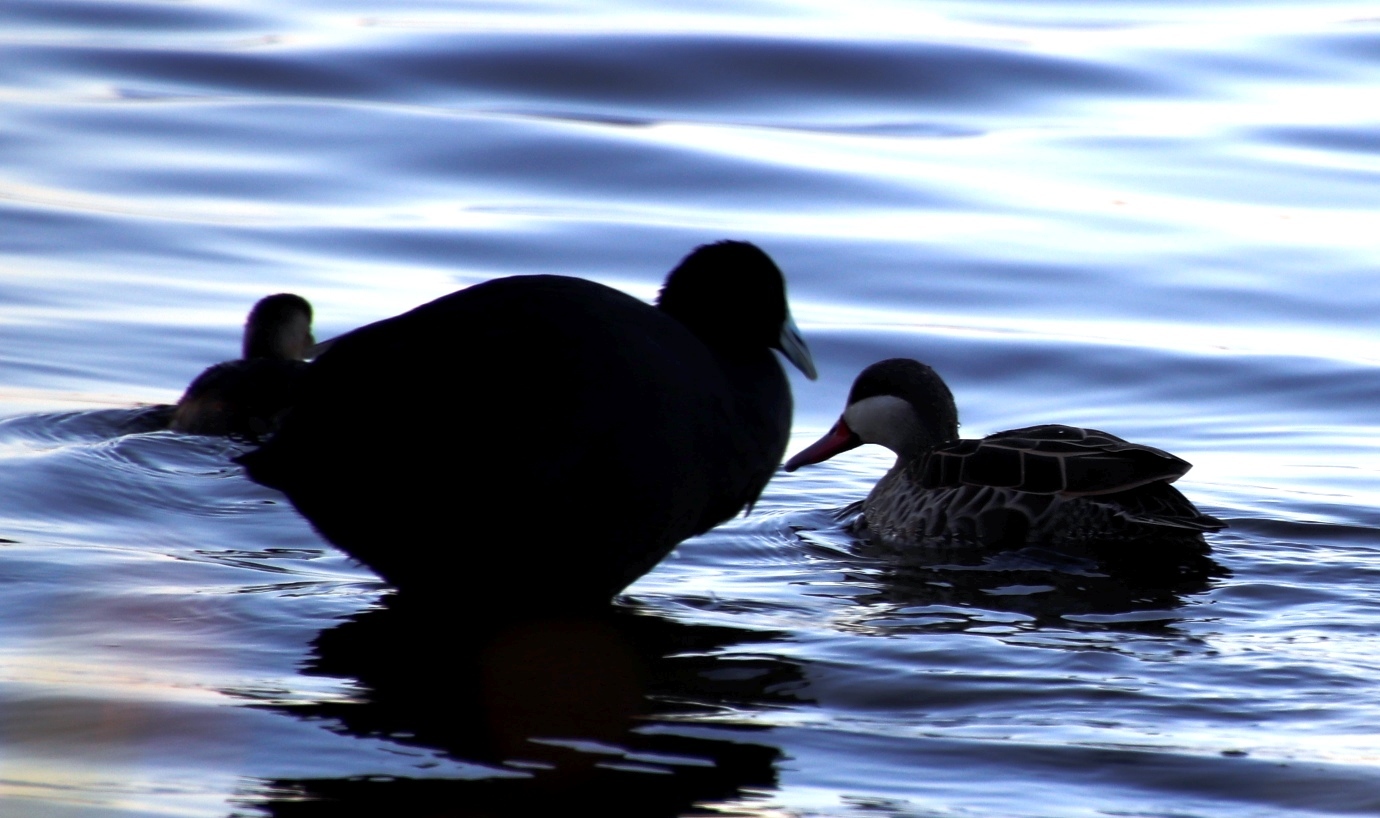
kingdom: Animalia
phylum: Chordata
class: Aves
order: Anseriformes
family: Anatidae
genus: Anas
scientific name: Anas erythrorhyncha
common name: Red-billed teal
